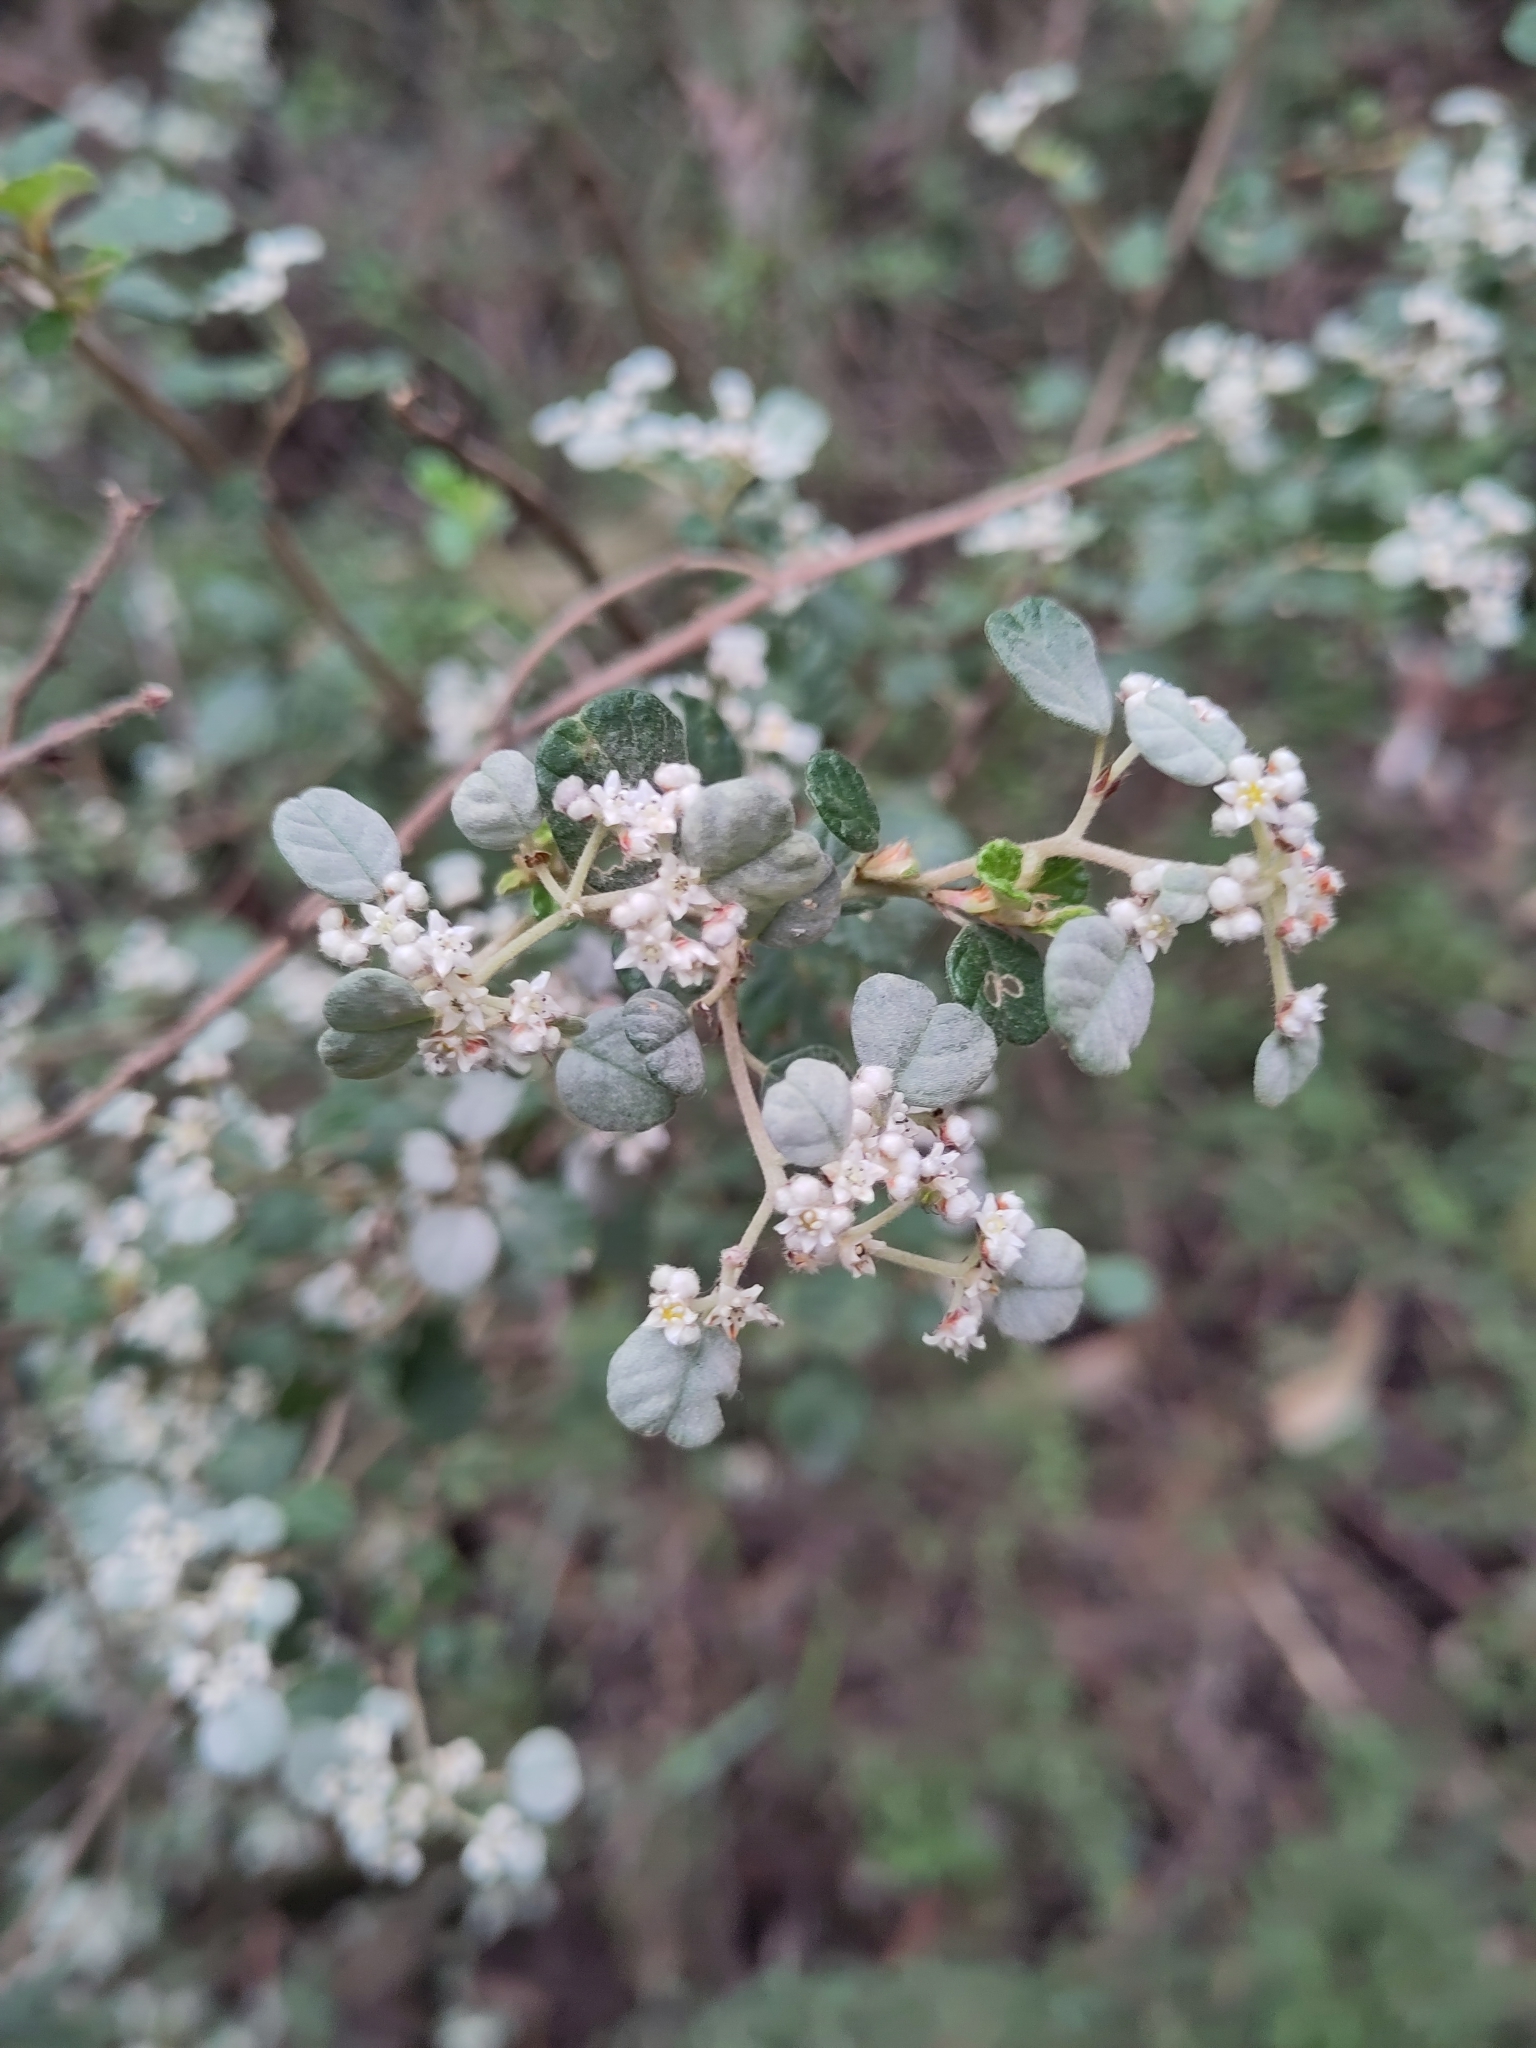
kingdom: Plantae
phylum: Tracheophyta
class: Magnoliopsida
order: Rosales
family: Rhamnaceae
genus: Spyridium
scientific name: Spyridium parvifolium
